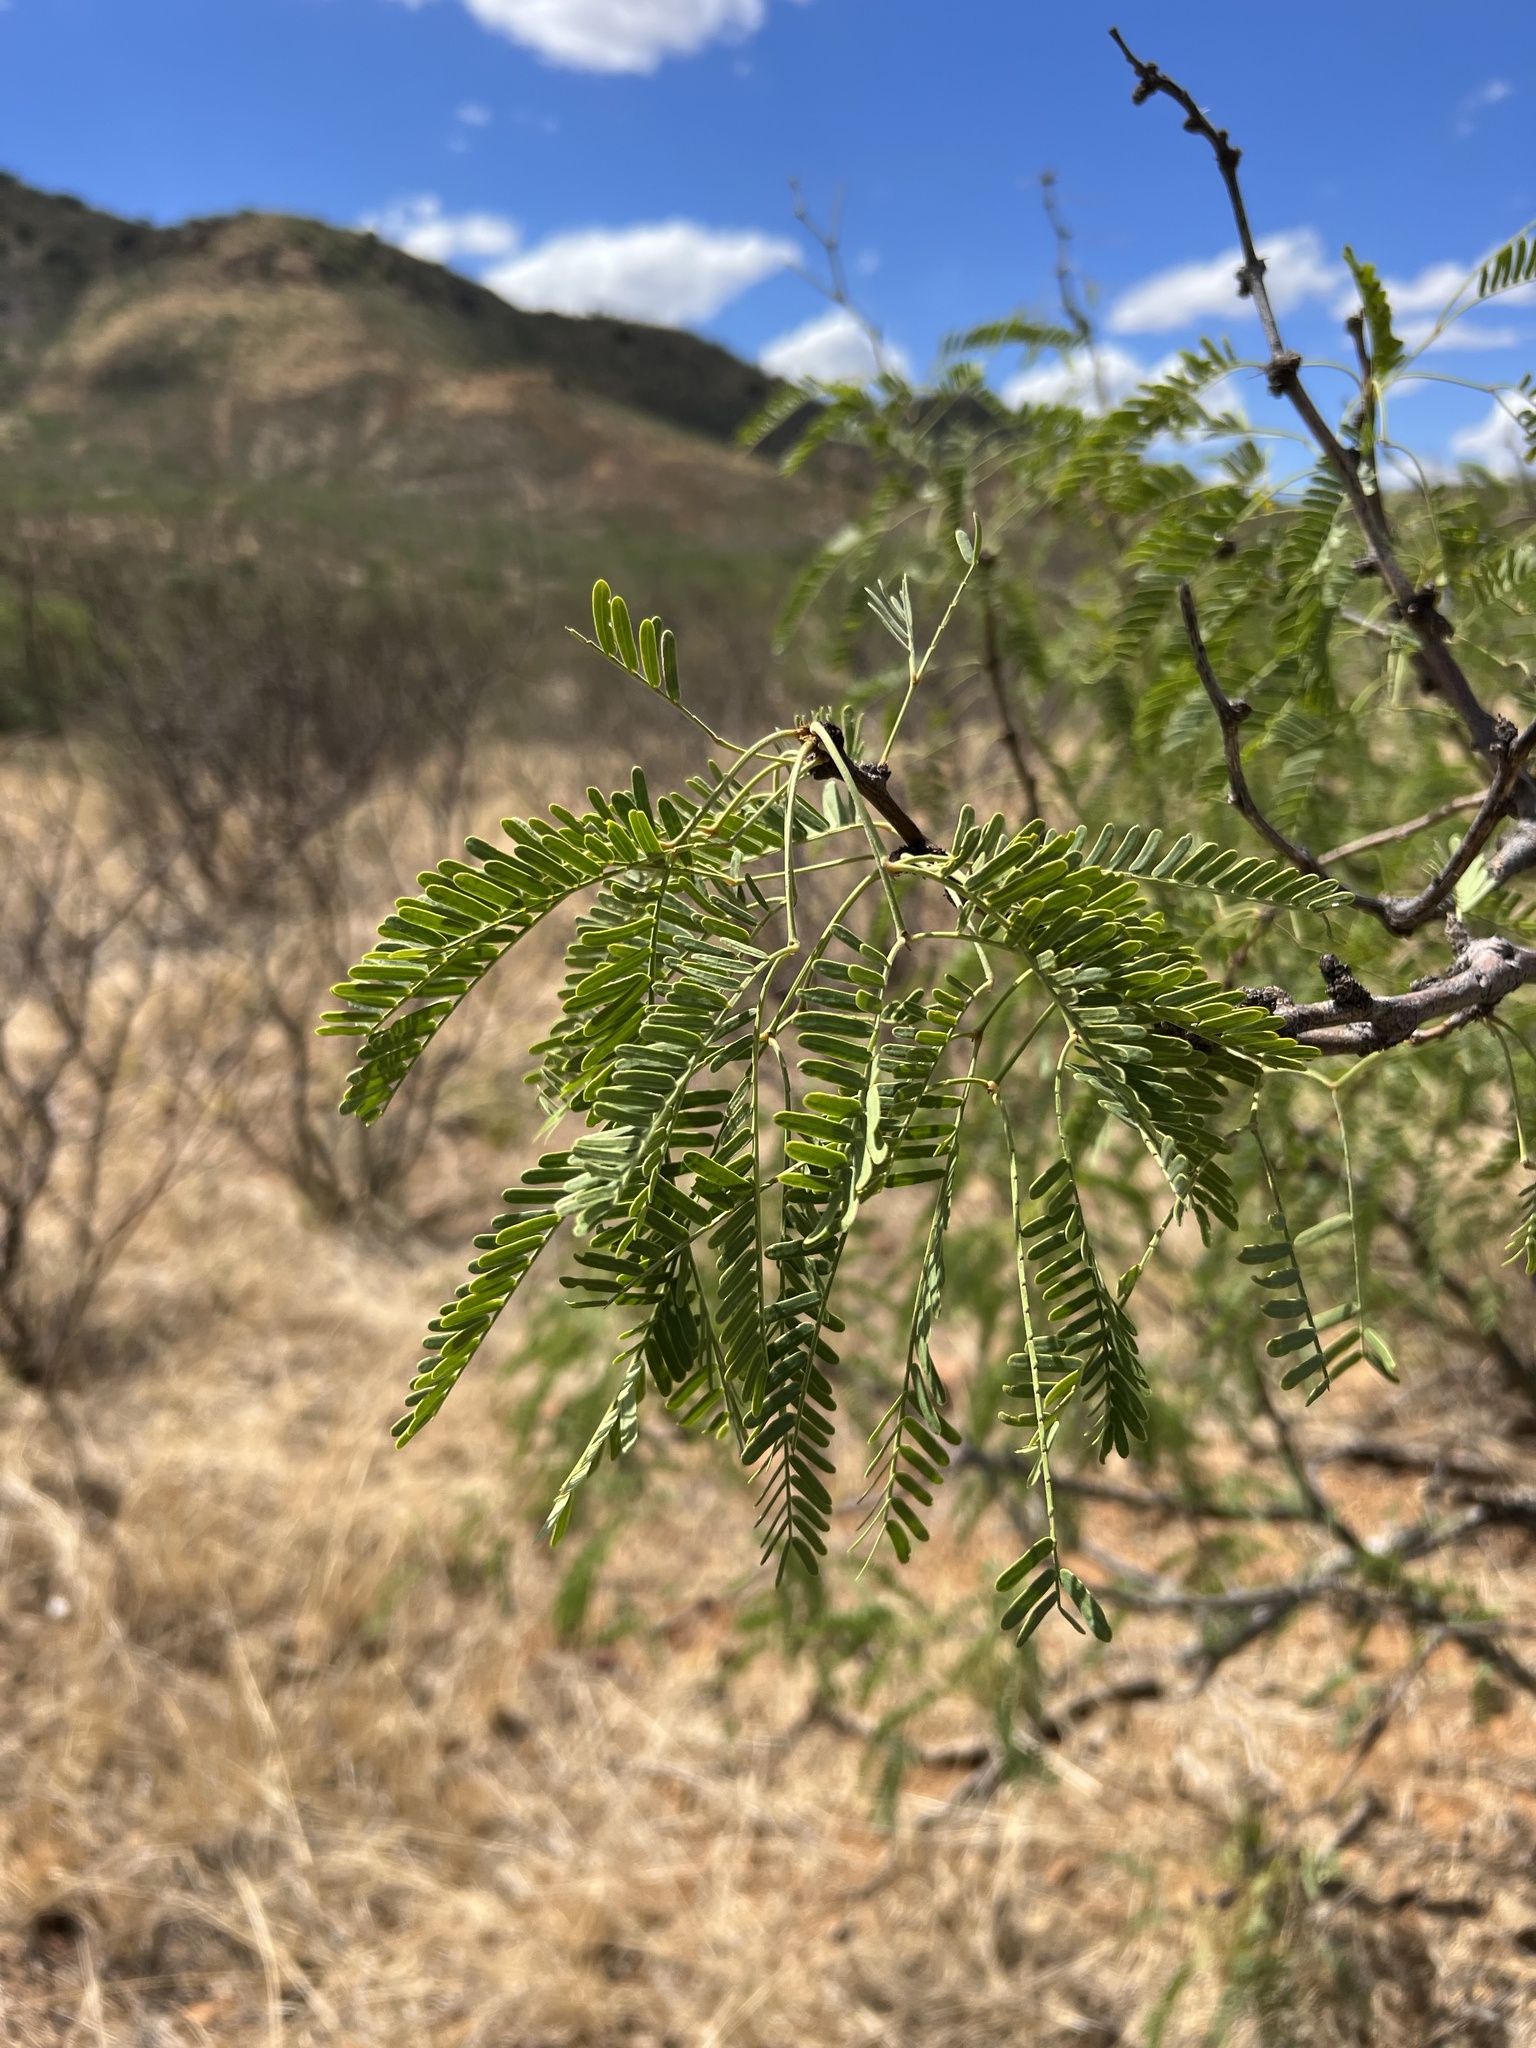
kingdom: Plantae
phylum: Tracheophyta
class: Magnoliopsida
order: Fabales
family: Fabaceae
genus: Prosopis
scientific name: Prosopis velutina
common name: Velvet mesquite
